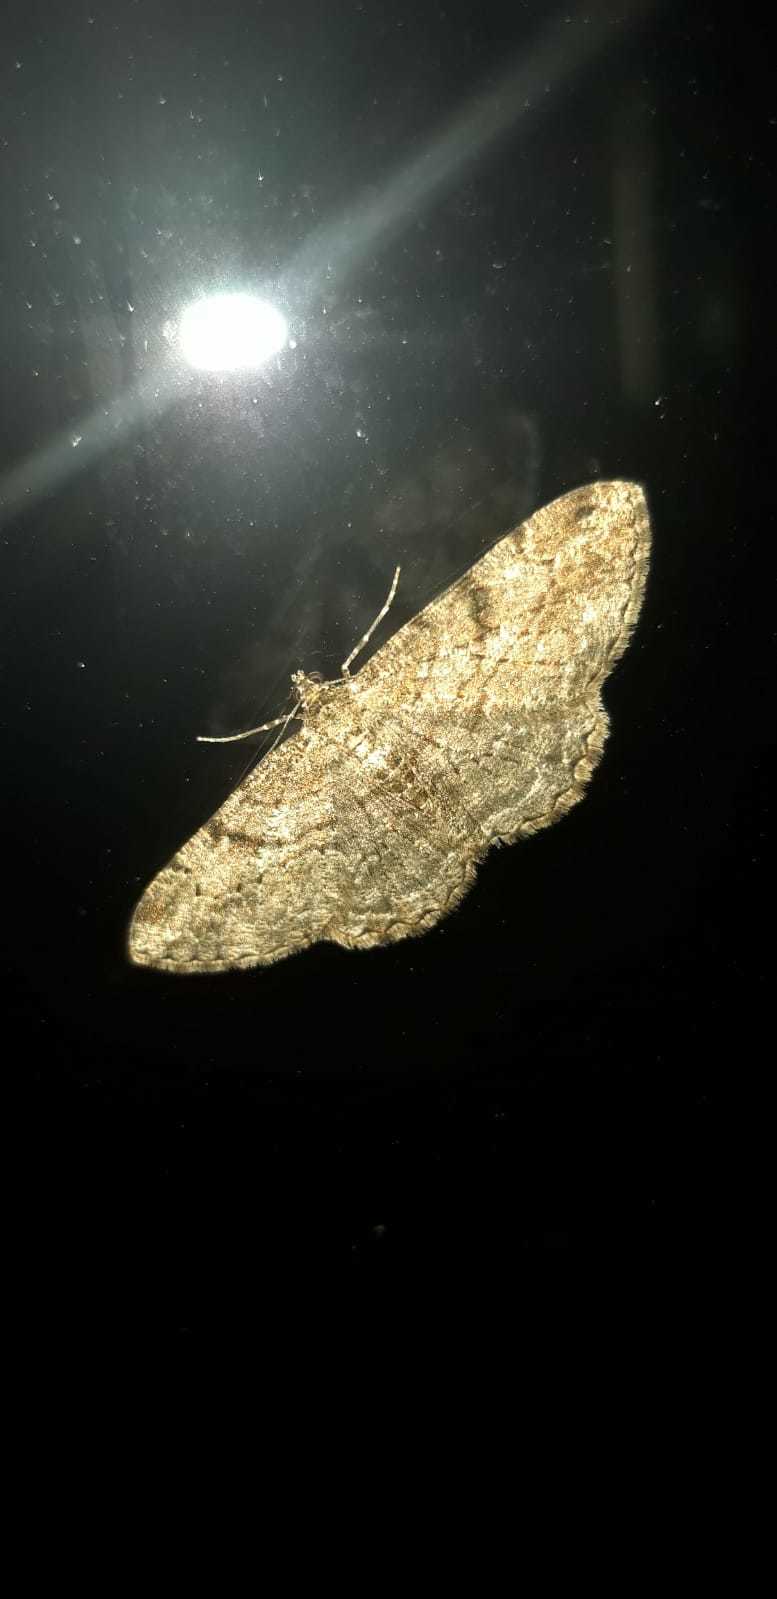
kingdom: Animalia
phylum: Arthropoda
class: Insecta
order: Lepidoptera
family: Geometridae
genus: Peribatodes
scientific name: Peribatodes rhomboidaria
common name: Willow beauty
